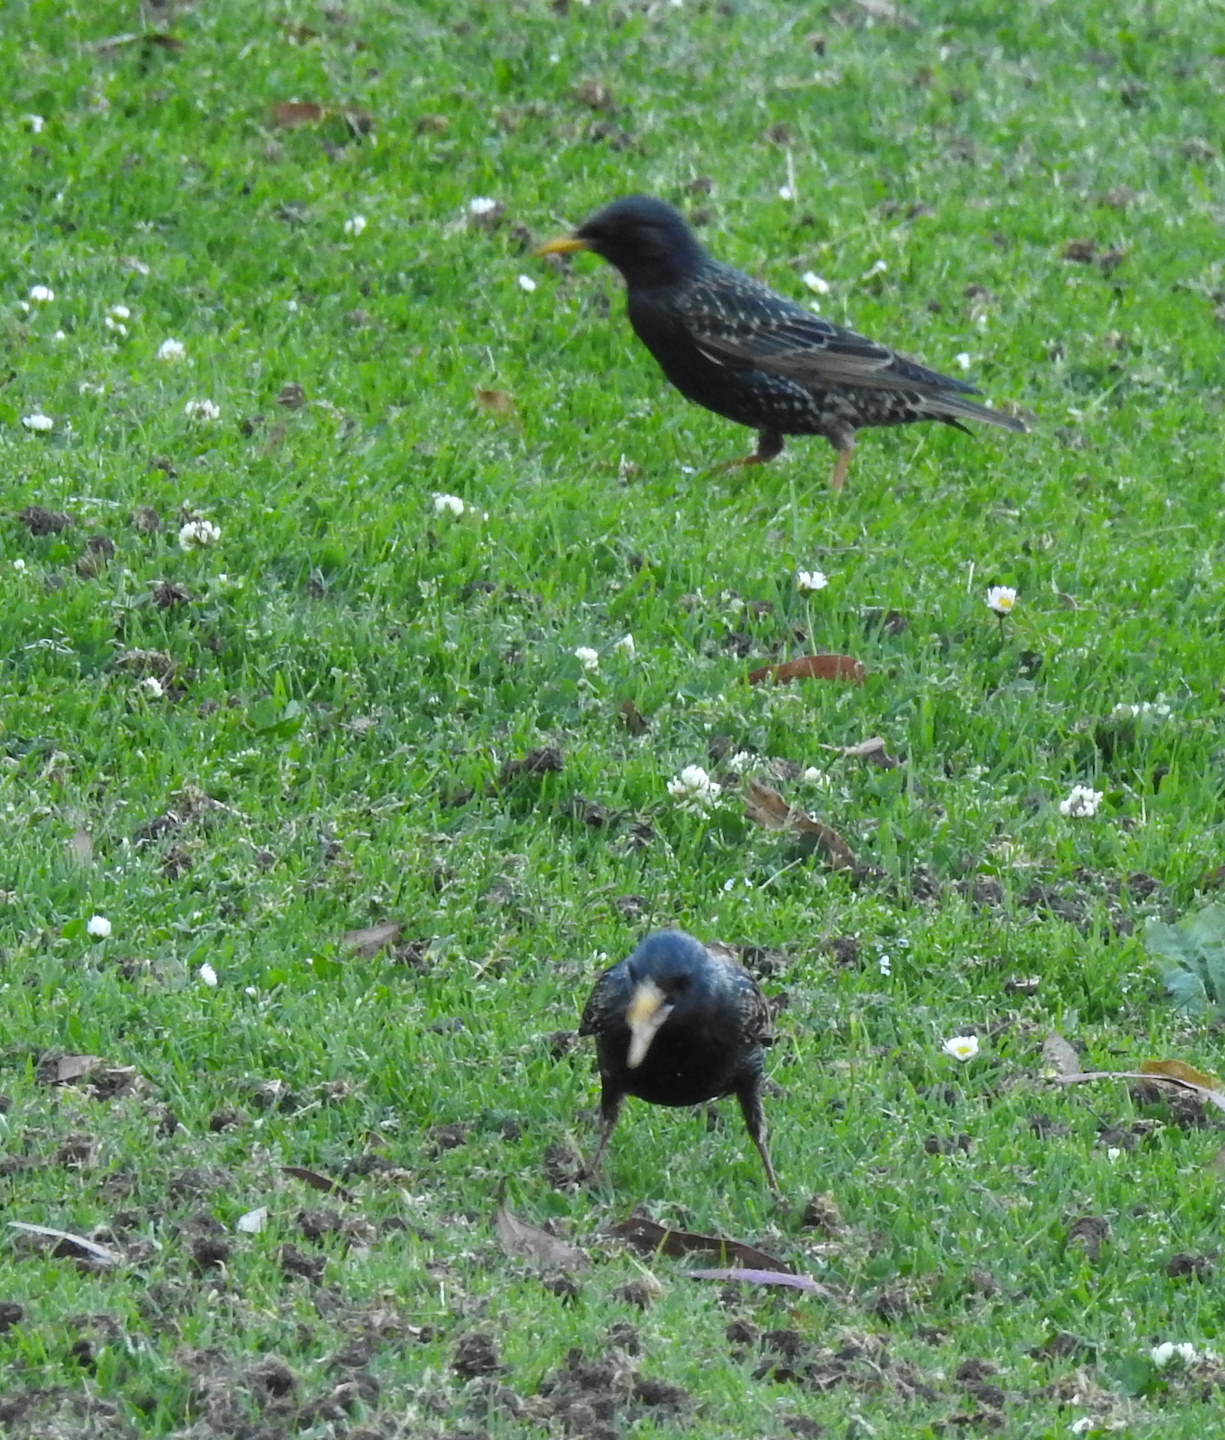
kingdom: Animalia
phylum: Chordata
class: Aves
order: Passeriformes
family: Sturnidae
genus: Sturnus
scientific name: Sturnus vulgaris
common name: Common starling
